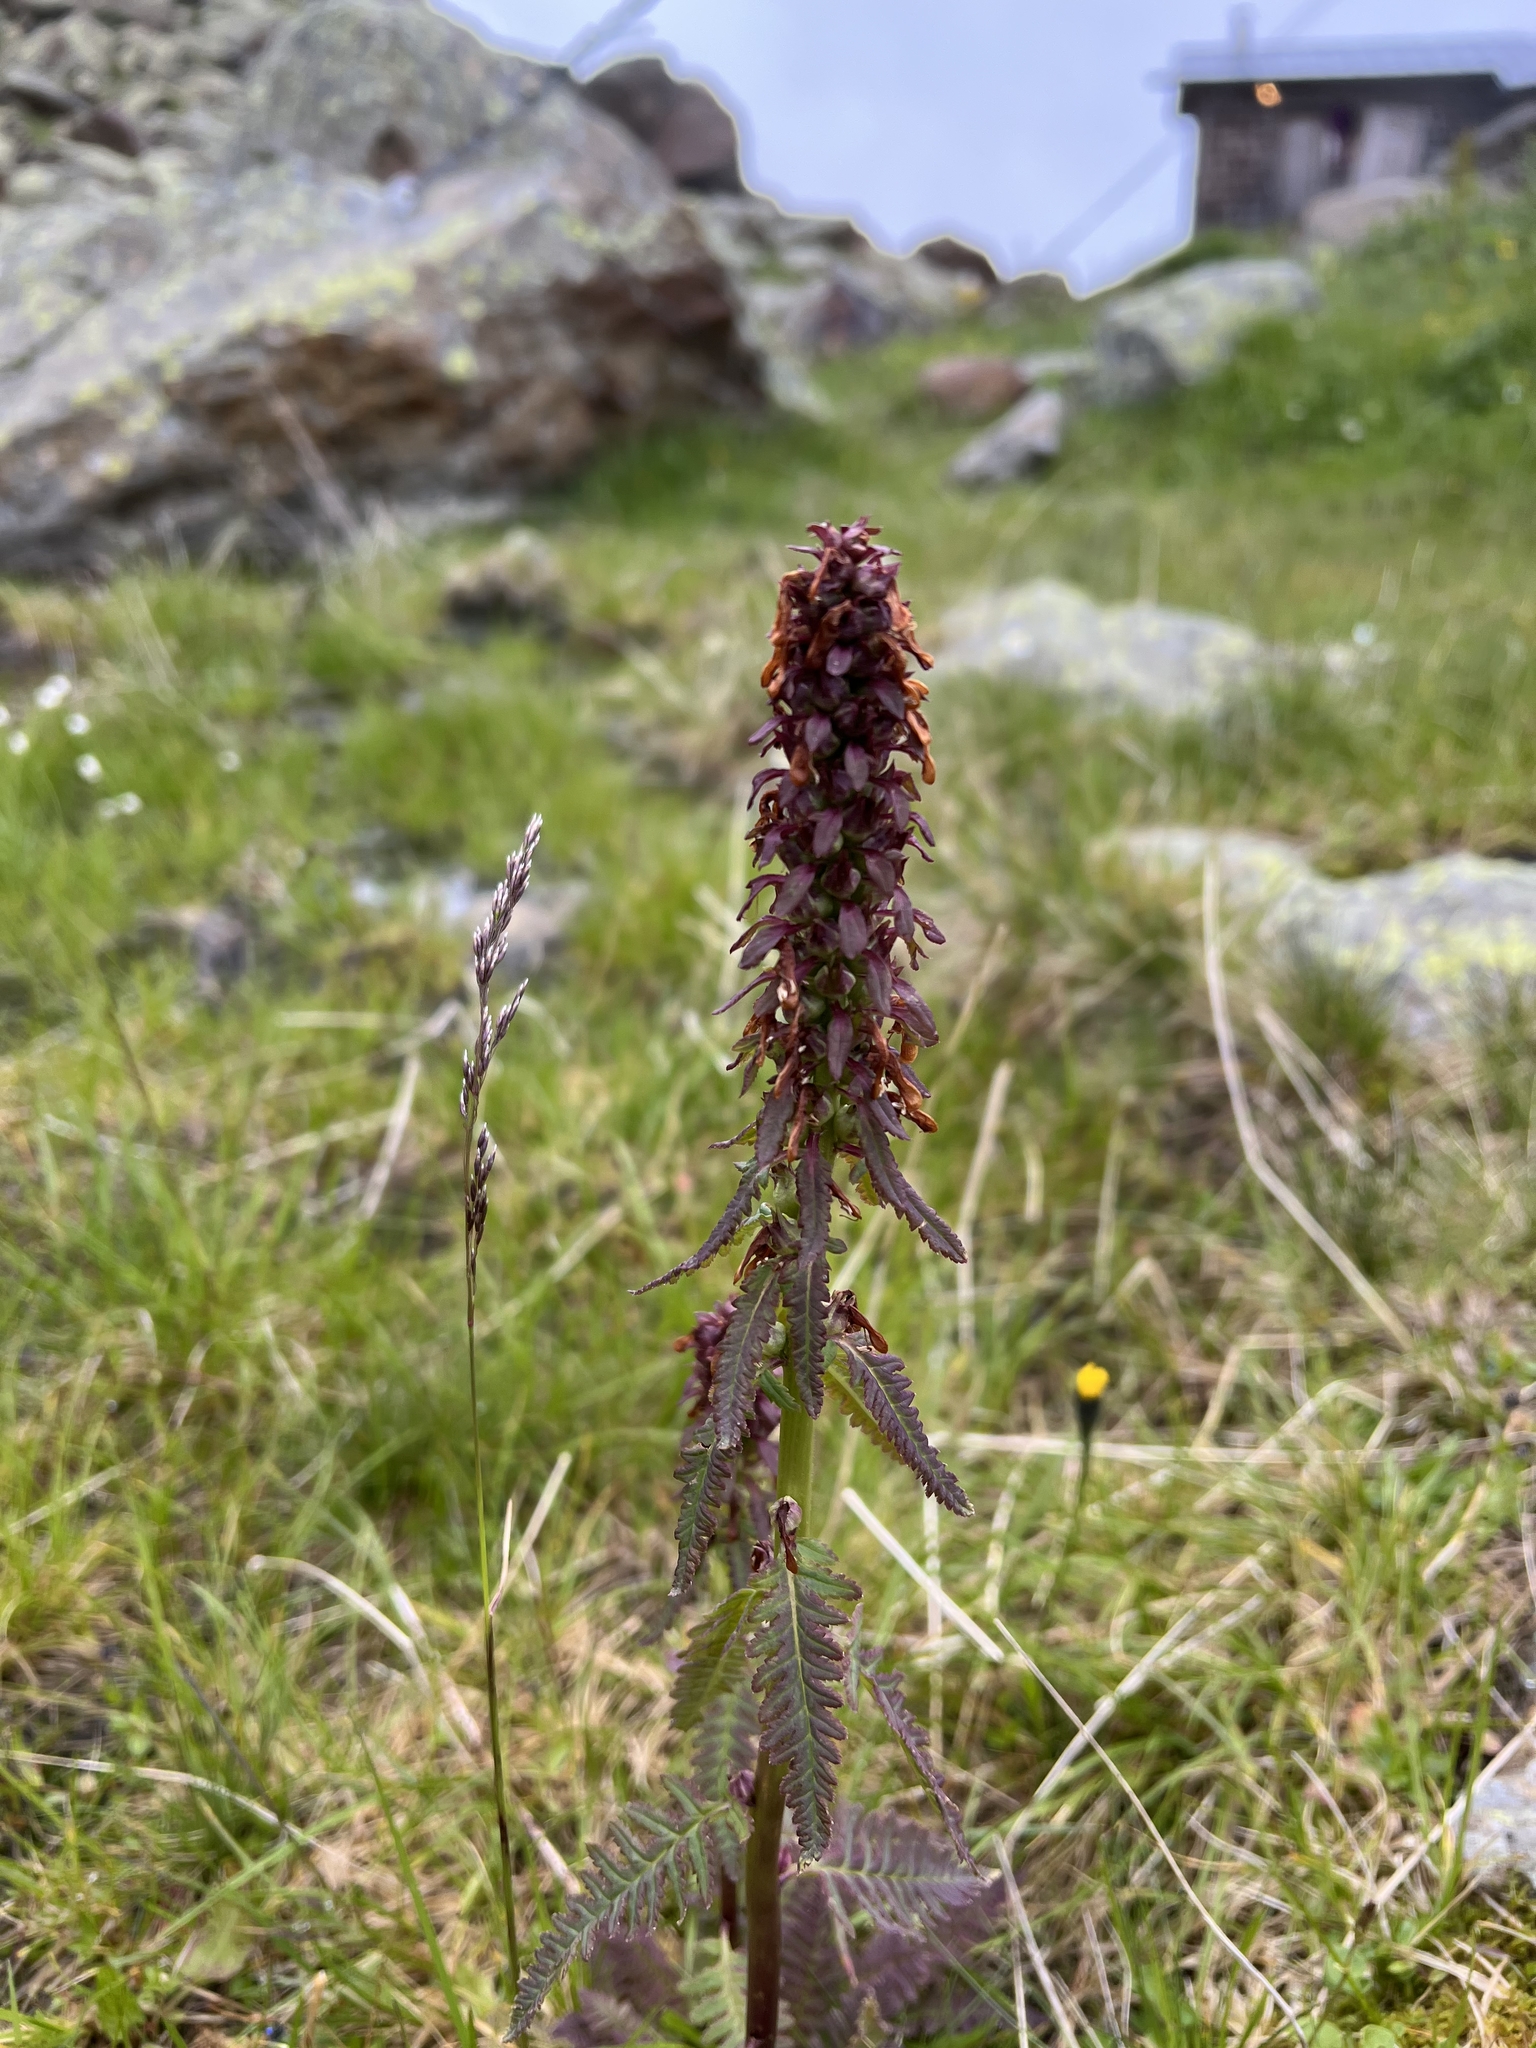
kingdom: Plantae
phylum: Tracheophyta
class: Magnoliopsida
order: Lamiales
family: Orobanchaceae
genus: Pedicularis
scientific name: Pedicularis recutita
